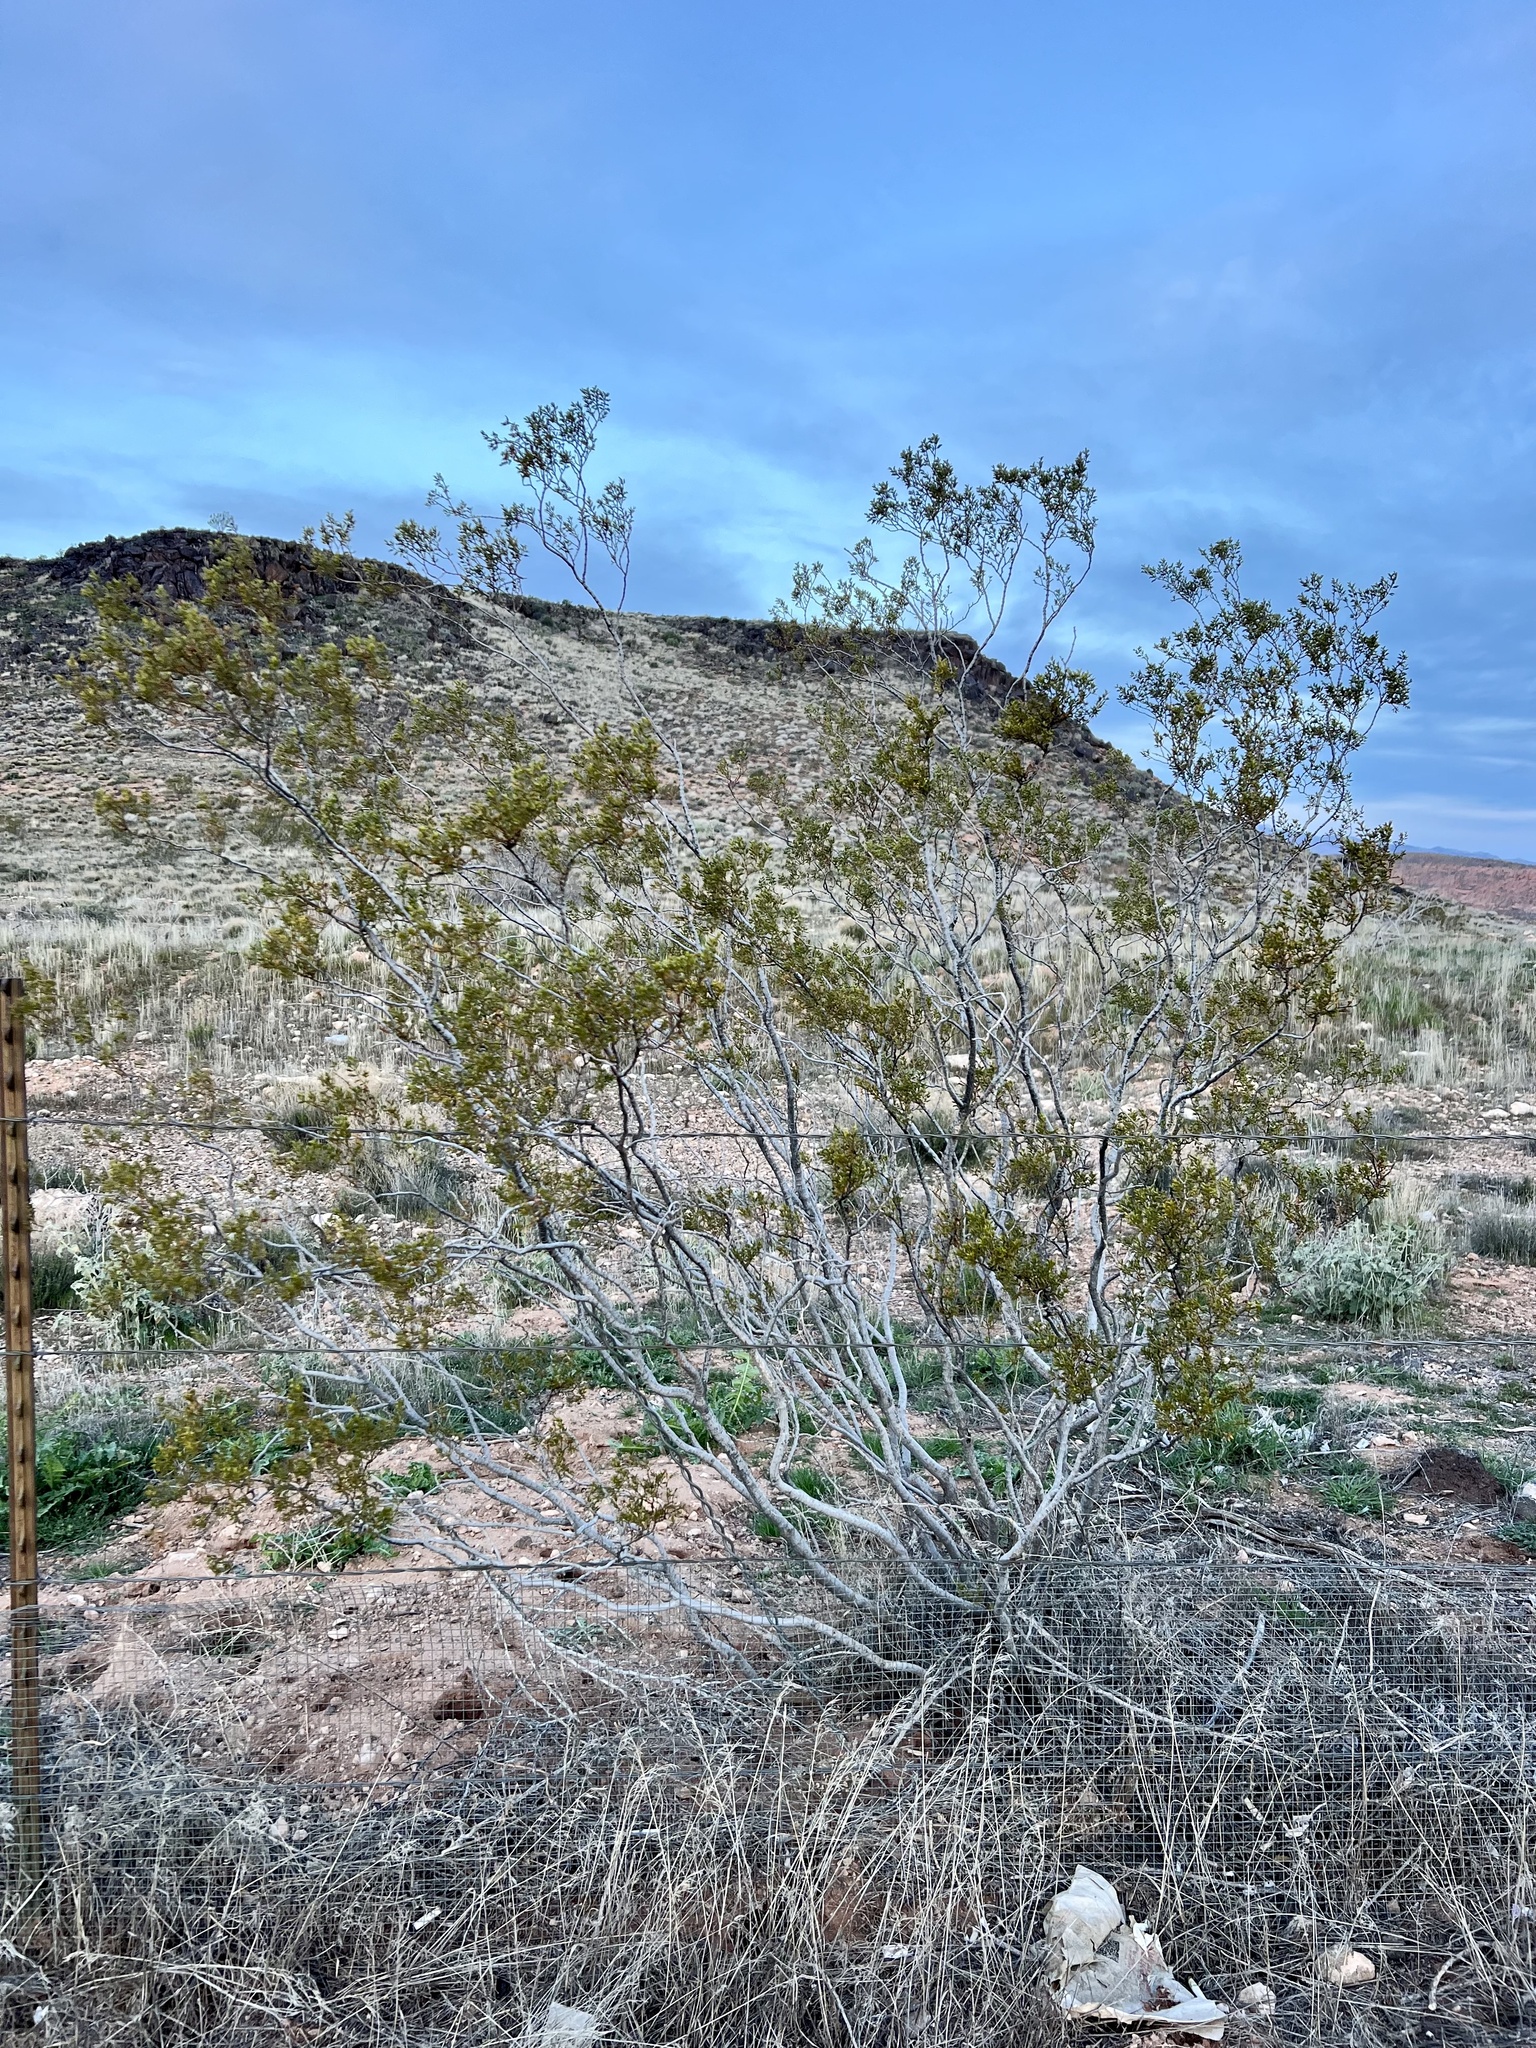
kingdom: Plantae
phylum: Tracheophyta
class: Magnoliopsida
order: Zygophyllales
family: Zygophyllaceae
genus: Larrea
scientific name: Larrea tridentata
